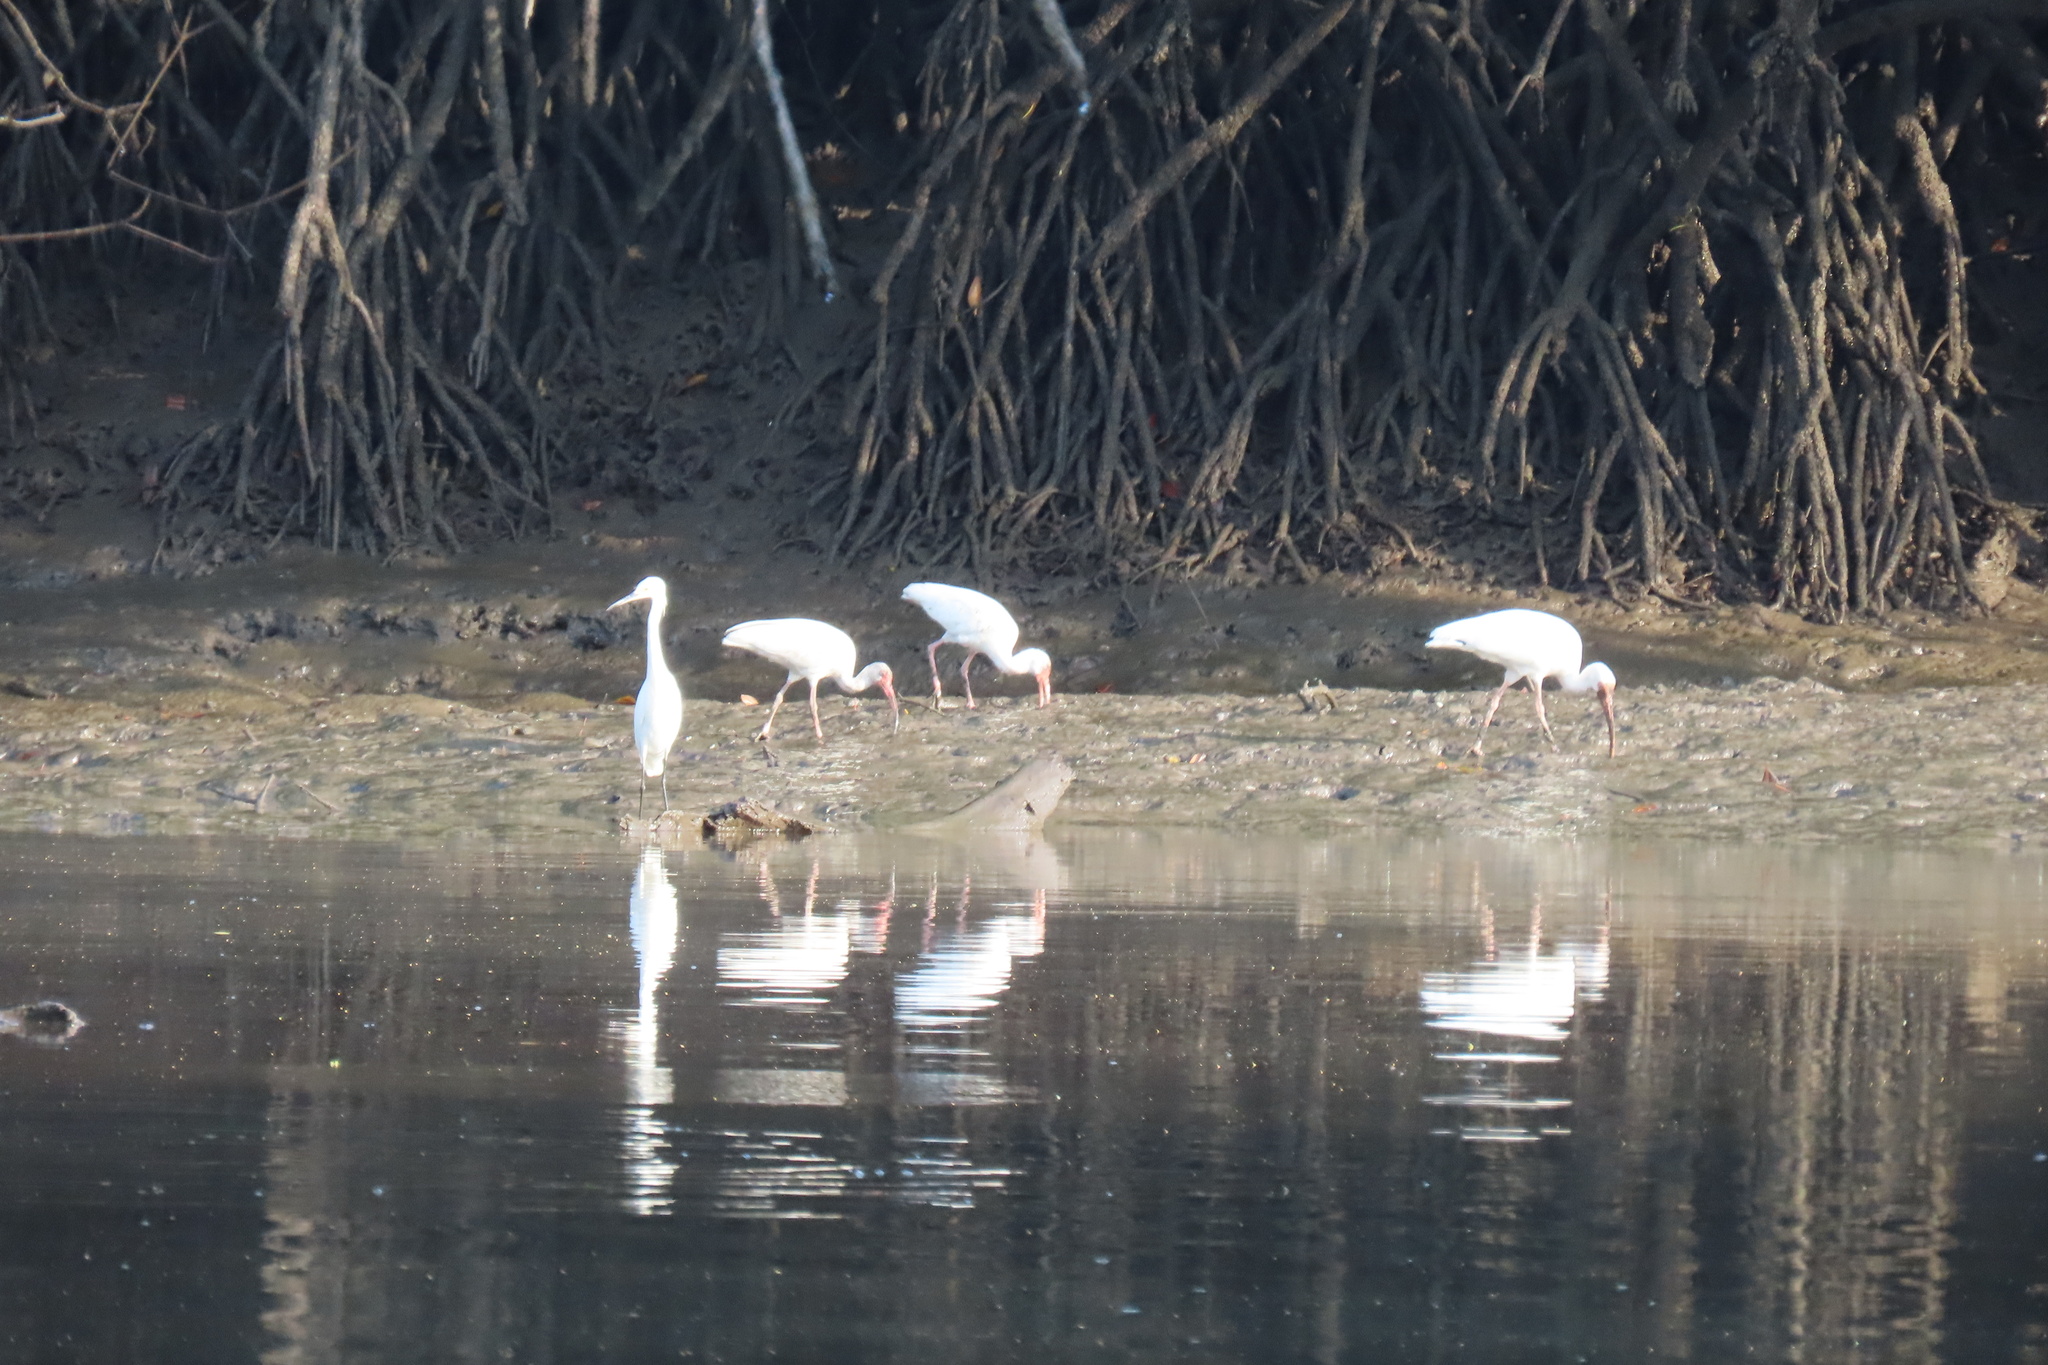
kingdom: Animalia
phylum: Chordata
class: Aves
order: Pelecaniformes
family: Threskiornithidae
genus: Eudocimus
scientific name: Eudocimus albus
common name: White ibis
